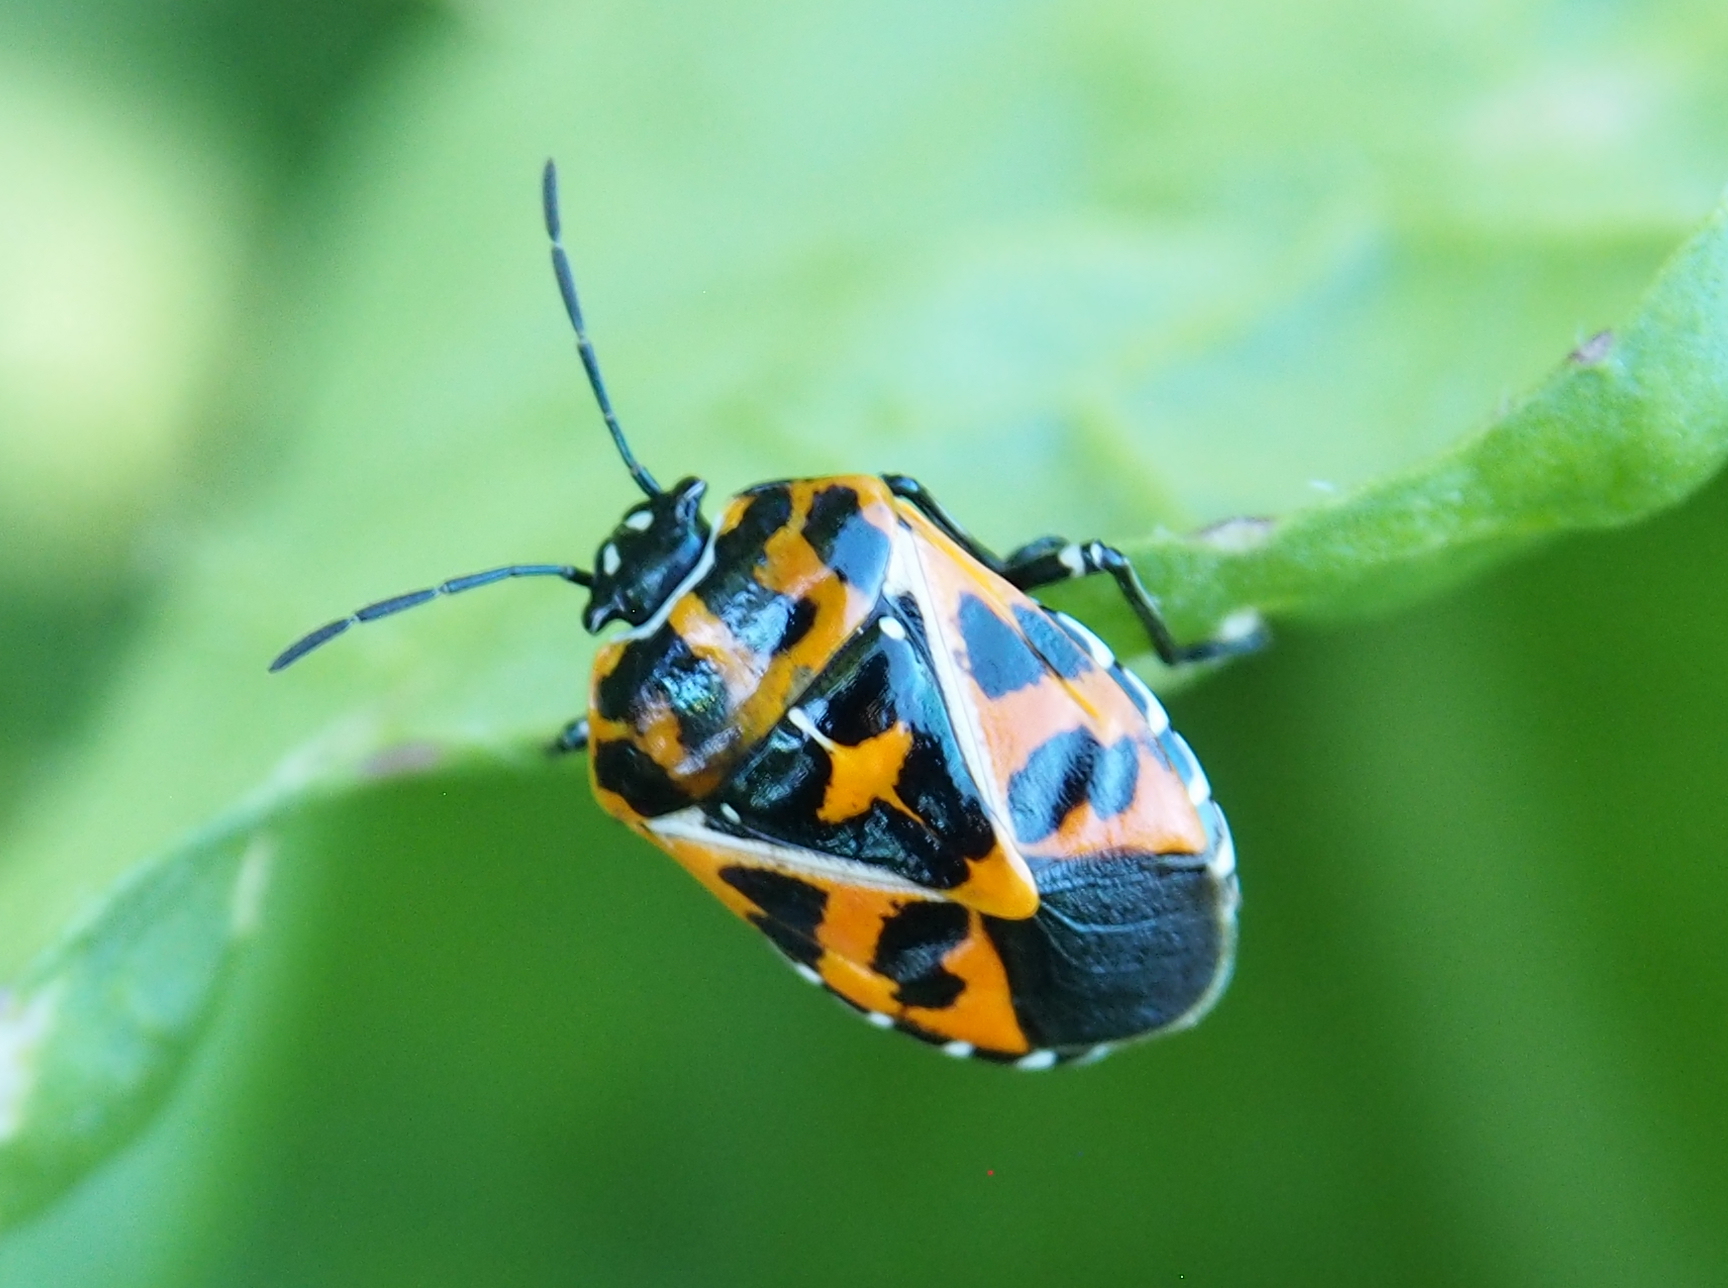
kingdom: Animalia
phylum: Arthropoda
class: Insecta
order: Hemiptera
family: Pentatomidae
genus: Murgantia
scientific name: Murgantia histrionica
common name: Harlequin bug
